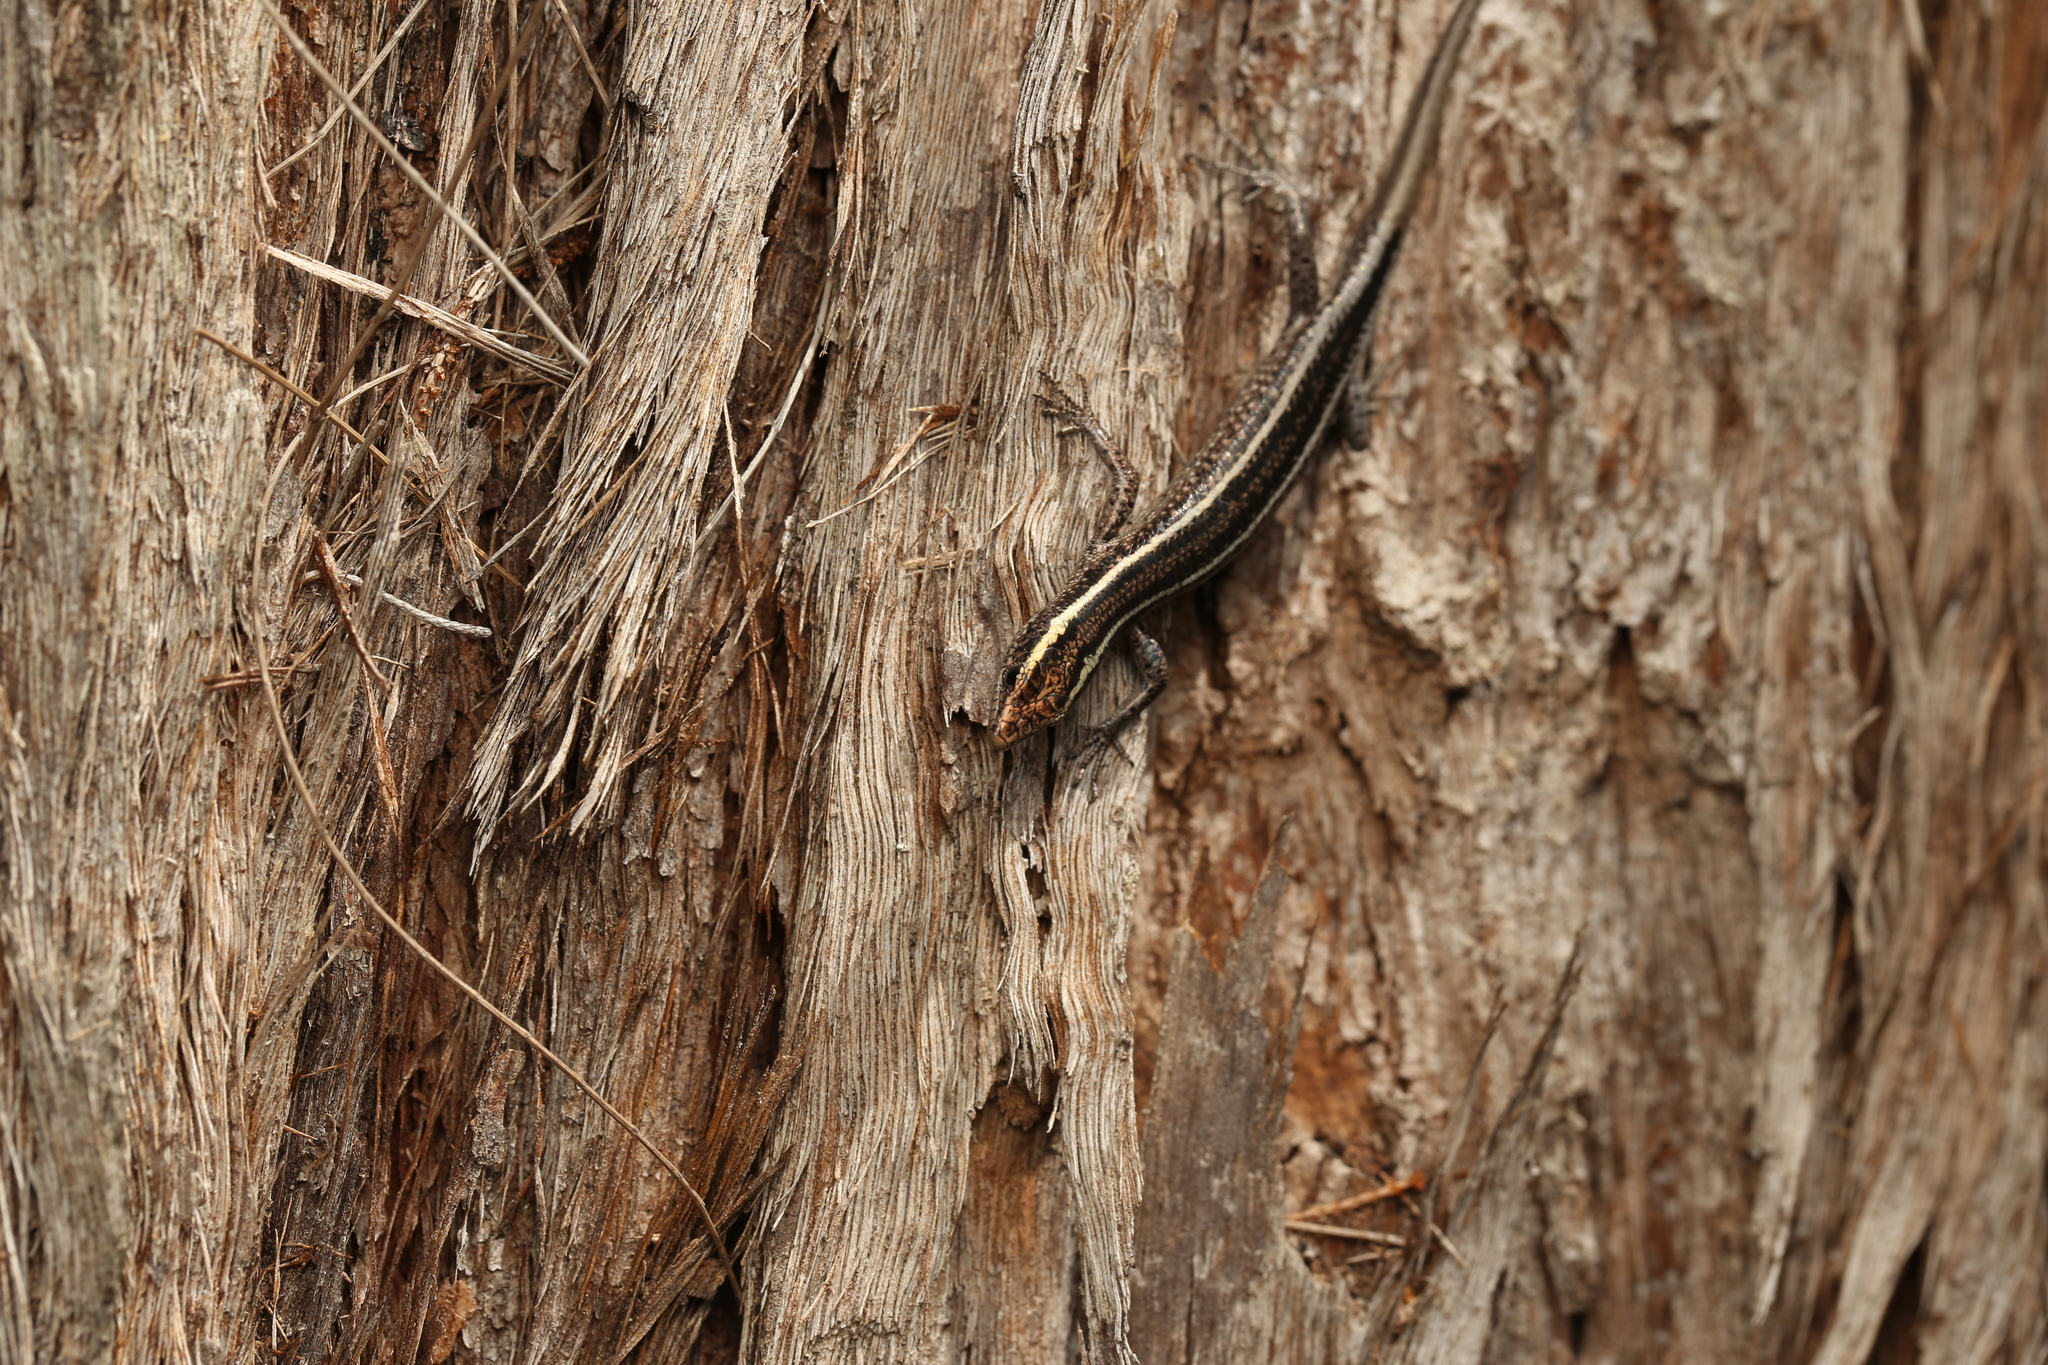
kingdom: Animalia
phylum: Chordata
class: Squamata
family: Scincidae
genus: Cryptoblepharus
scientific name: Cryptoblepharus pulcher
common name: Elegant snake-eyed skink
